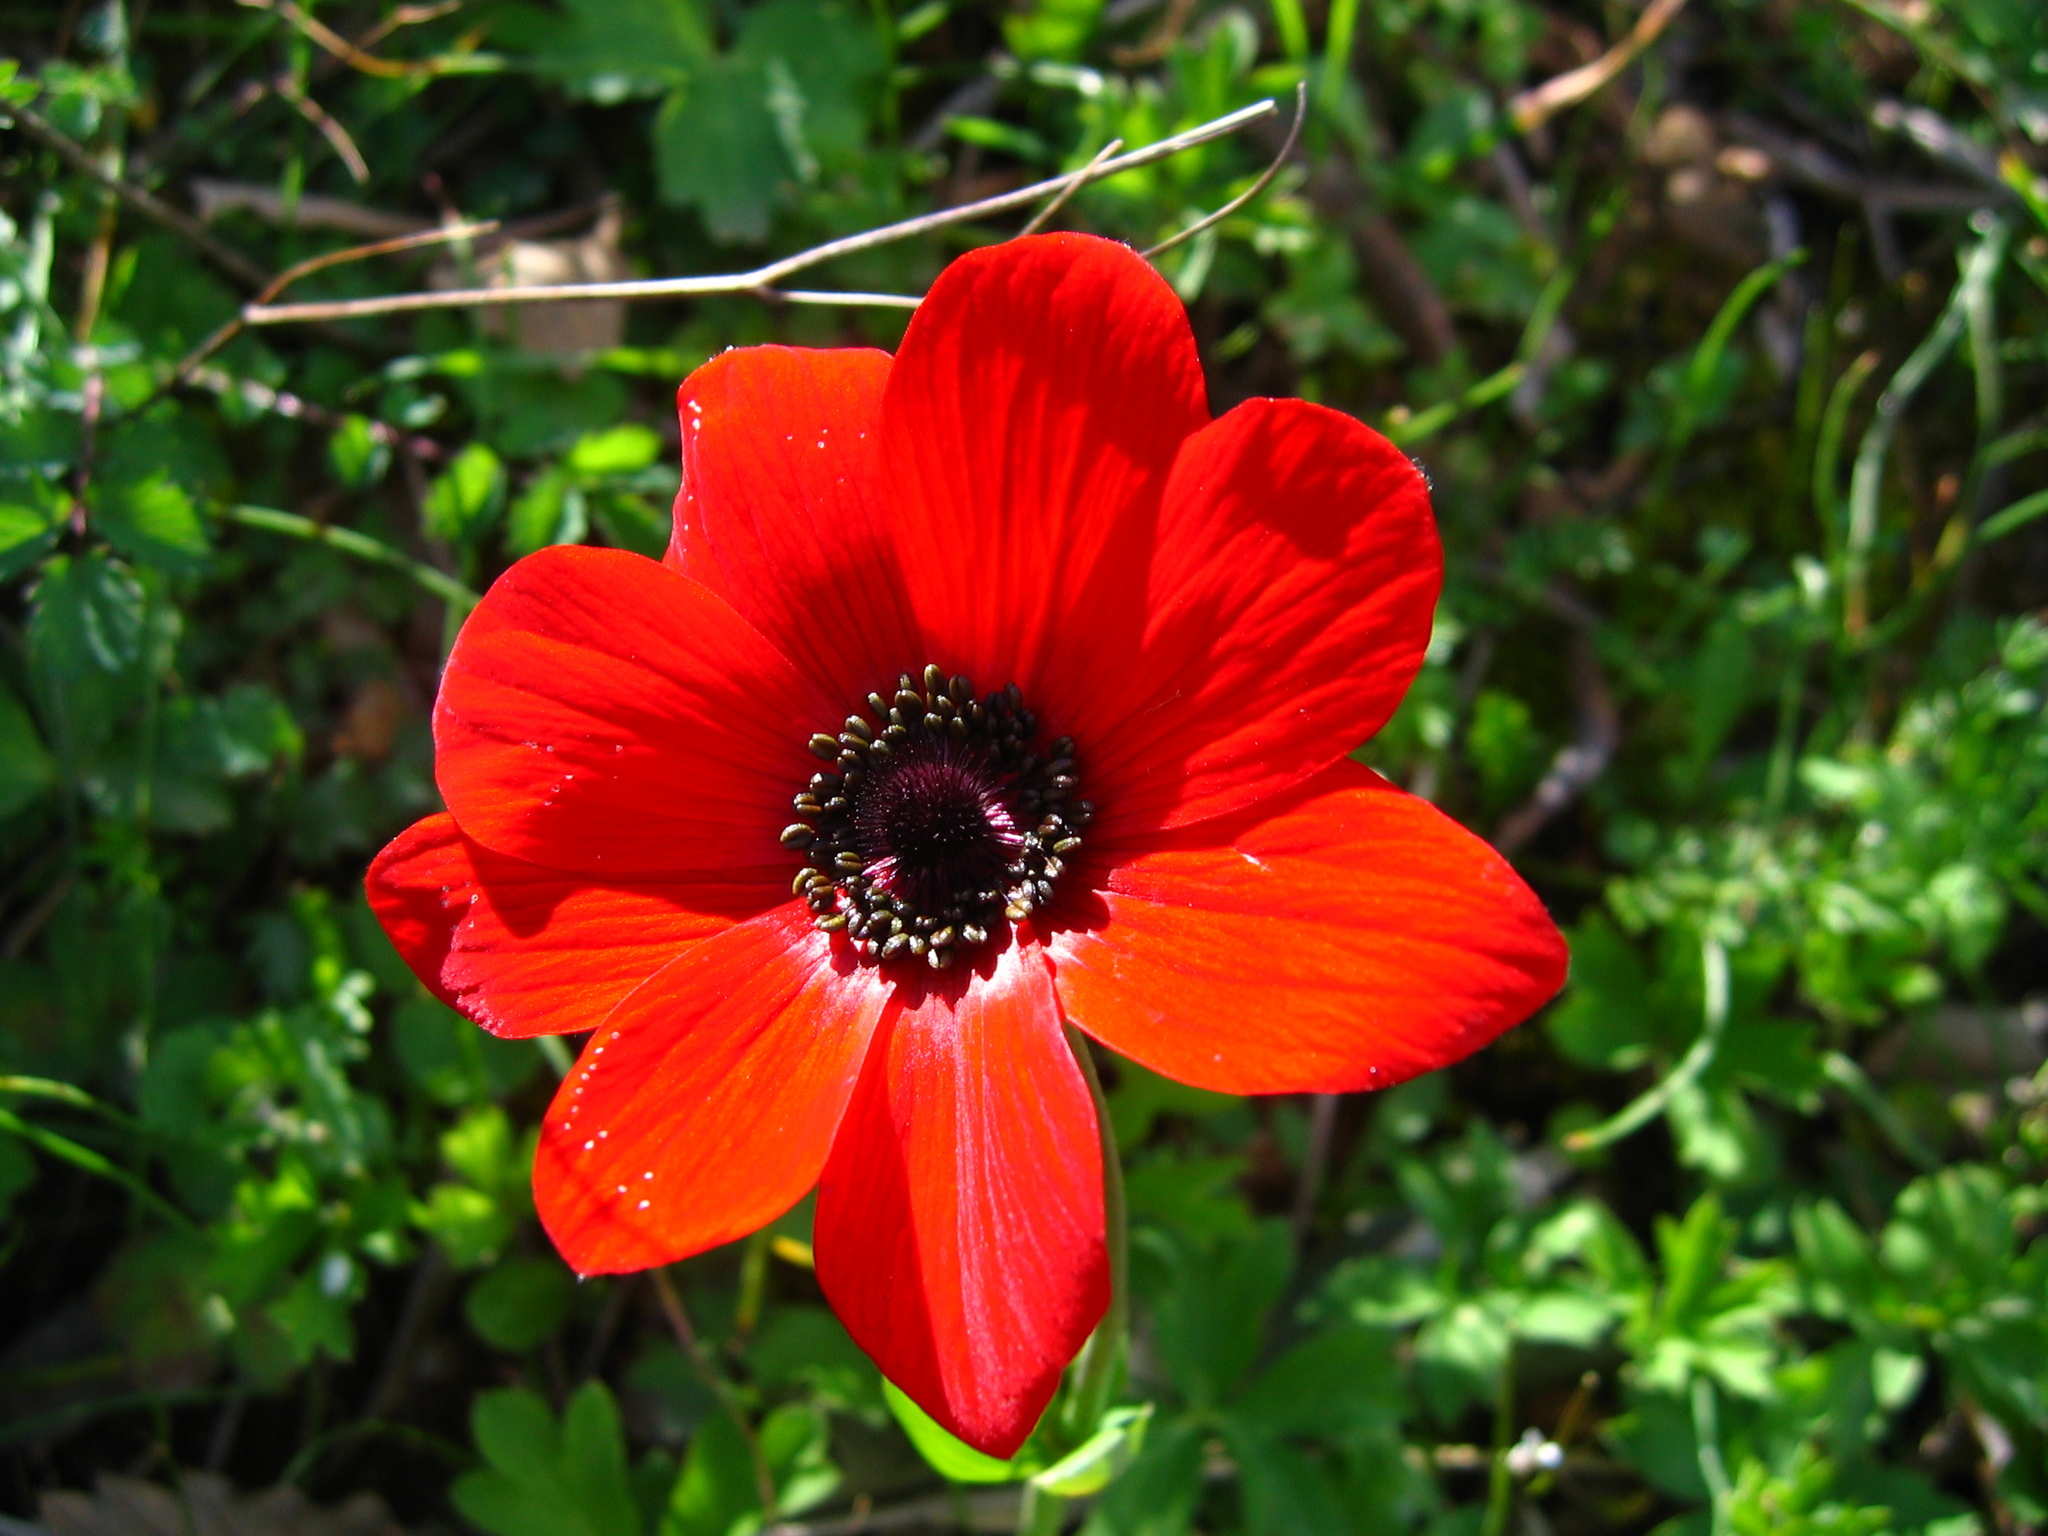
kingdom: Plantae
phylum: Tracheophyta
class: Magnoliopsida
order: Ranunculales
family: Ranunculaceae
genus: Anemone
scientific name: Anemone pavonina
